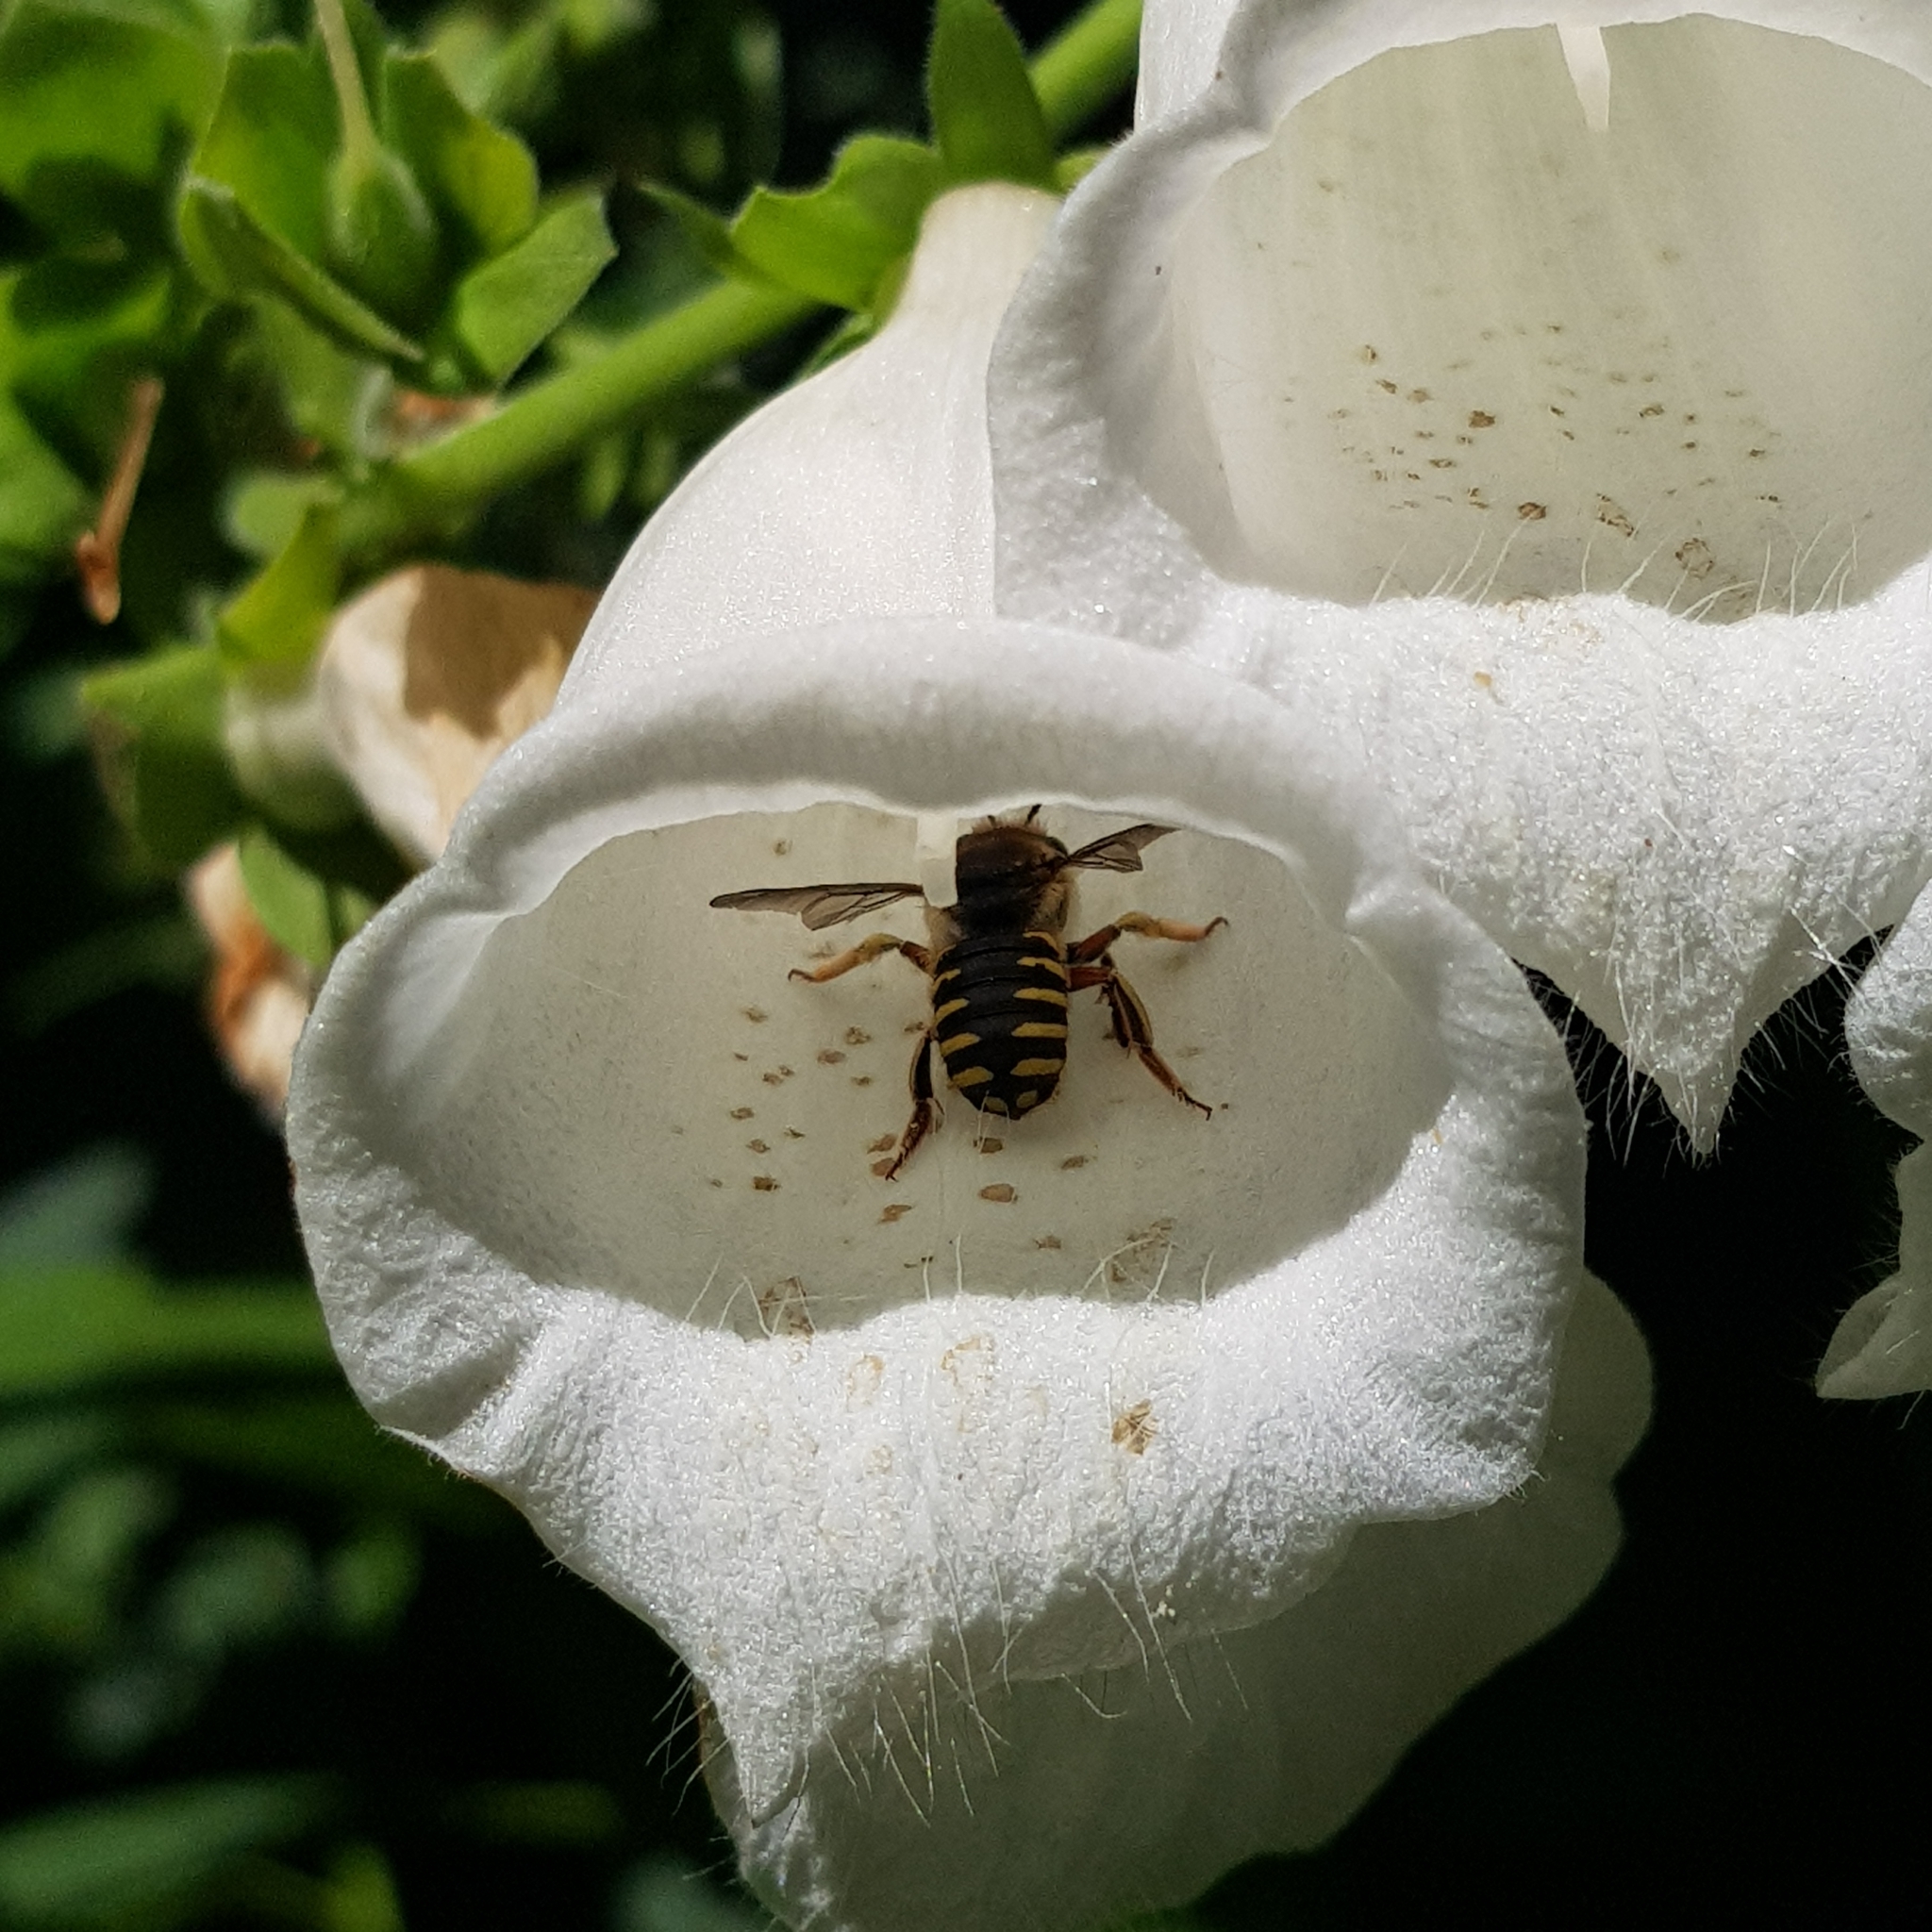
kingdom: Animalia
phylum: Arthropoda
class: Insecta
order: Hymenoptera
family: Megachilidae
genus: Anthidium
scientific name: Anthidium manicatum
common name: Wool carder bee
